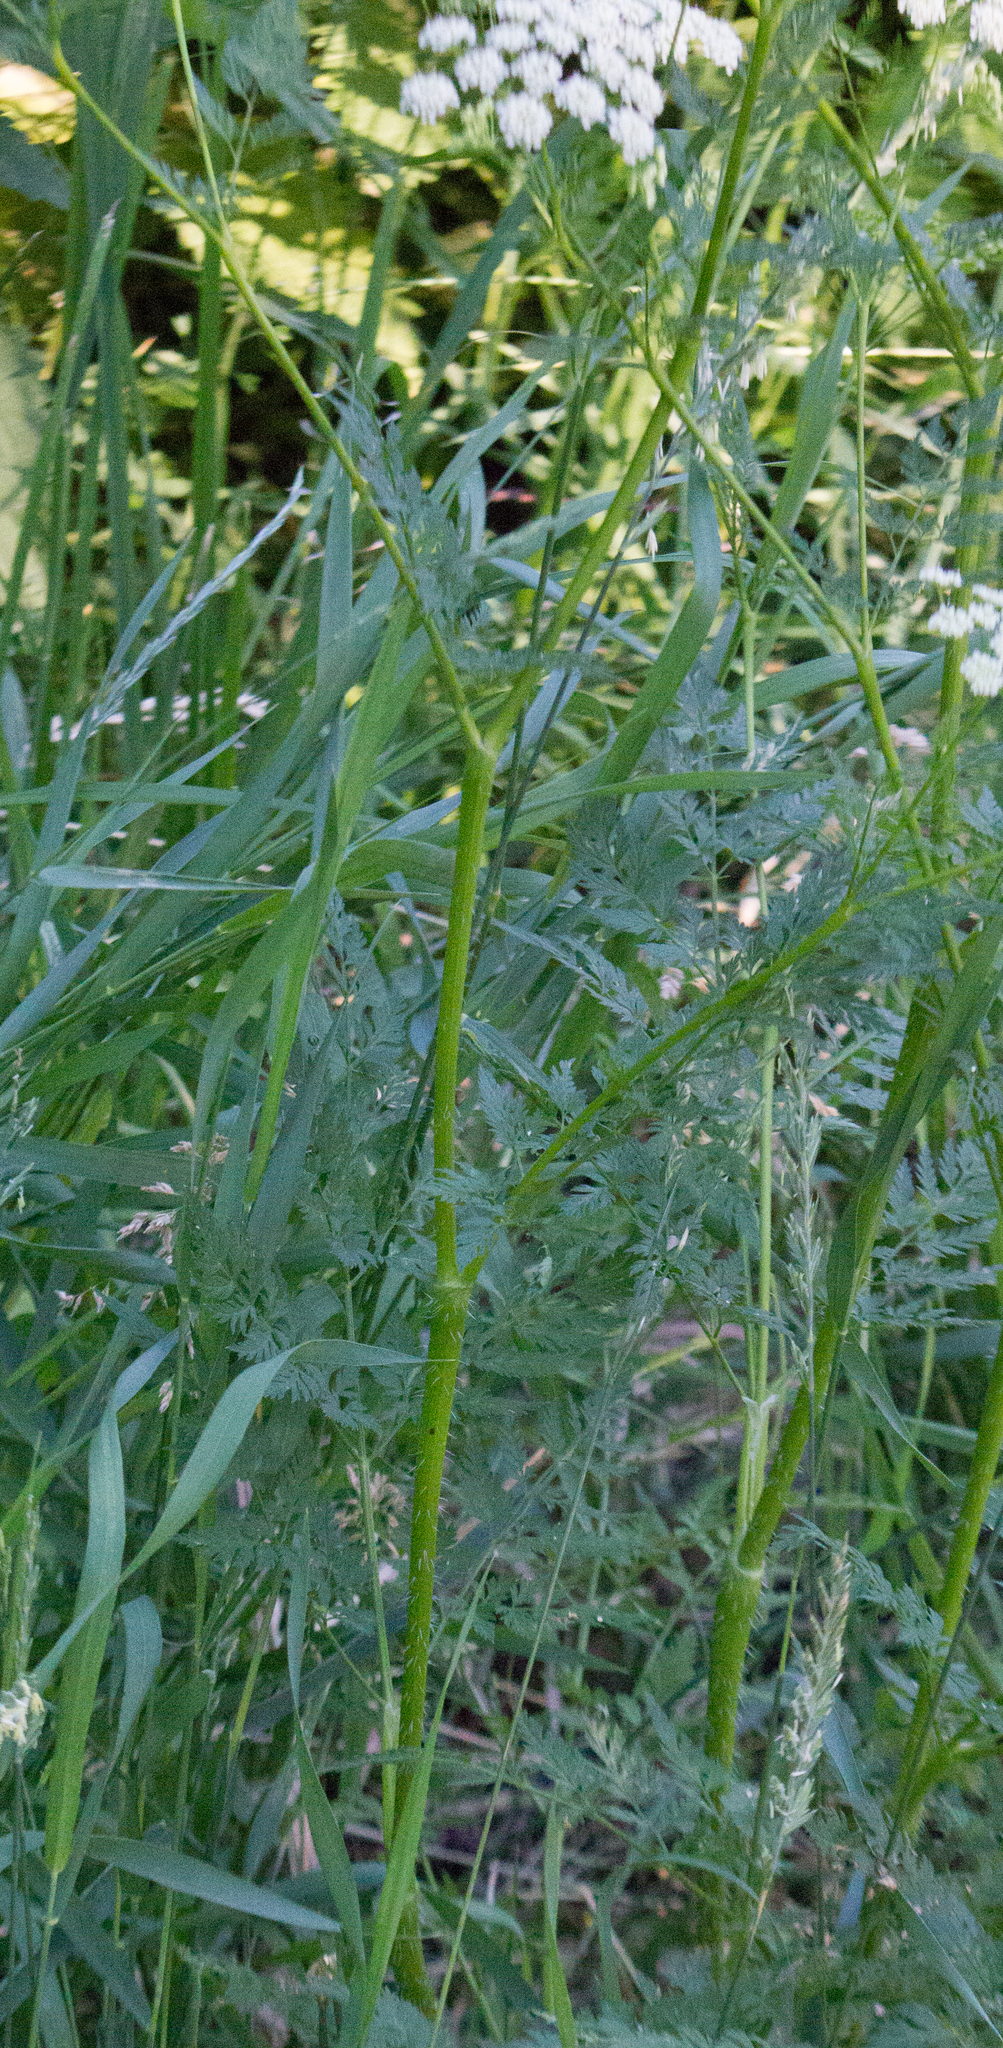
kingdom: Plantae
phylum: Tracheophyta
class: Magnoliopsida
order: Apiales
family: Apiaceae
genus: Chaerophyllum
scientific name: Chaerophyllum prescottii
